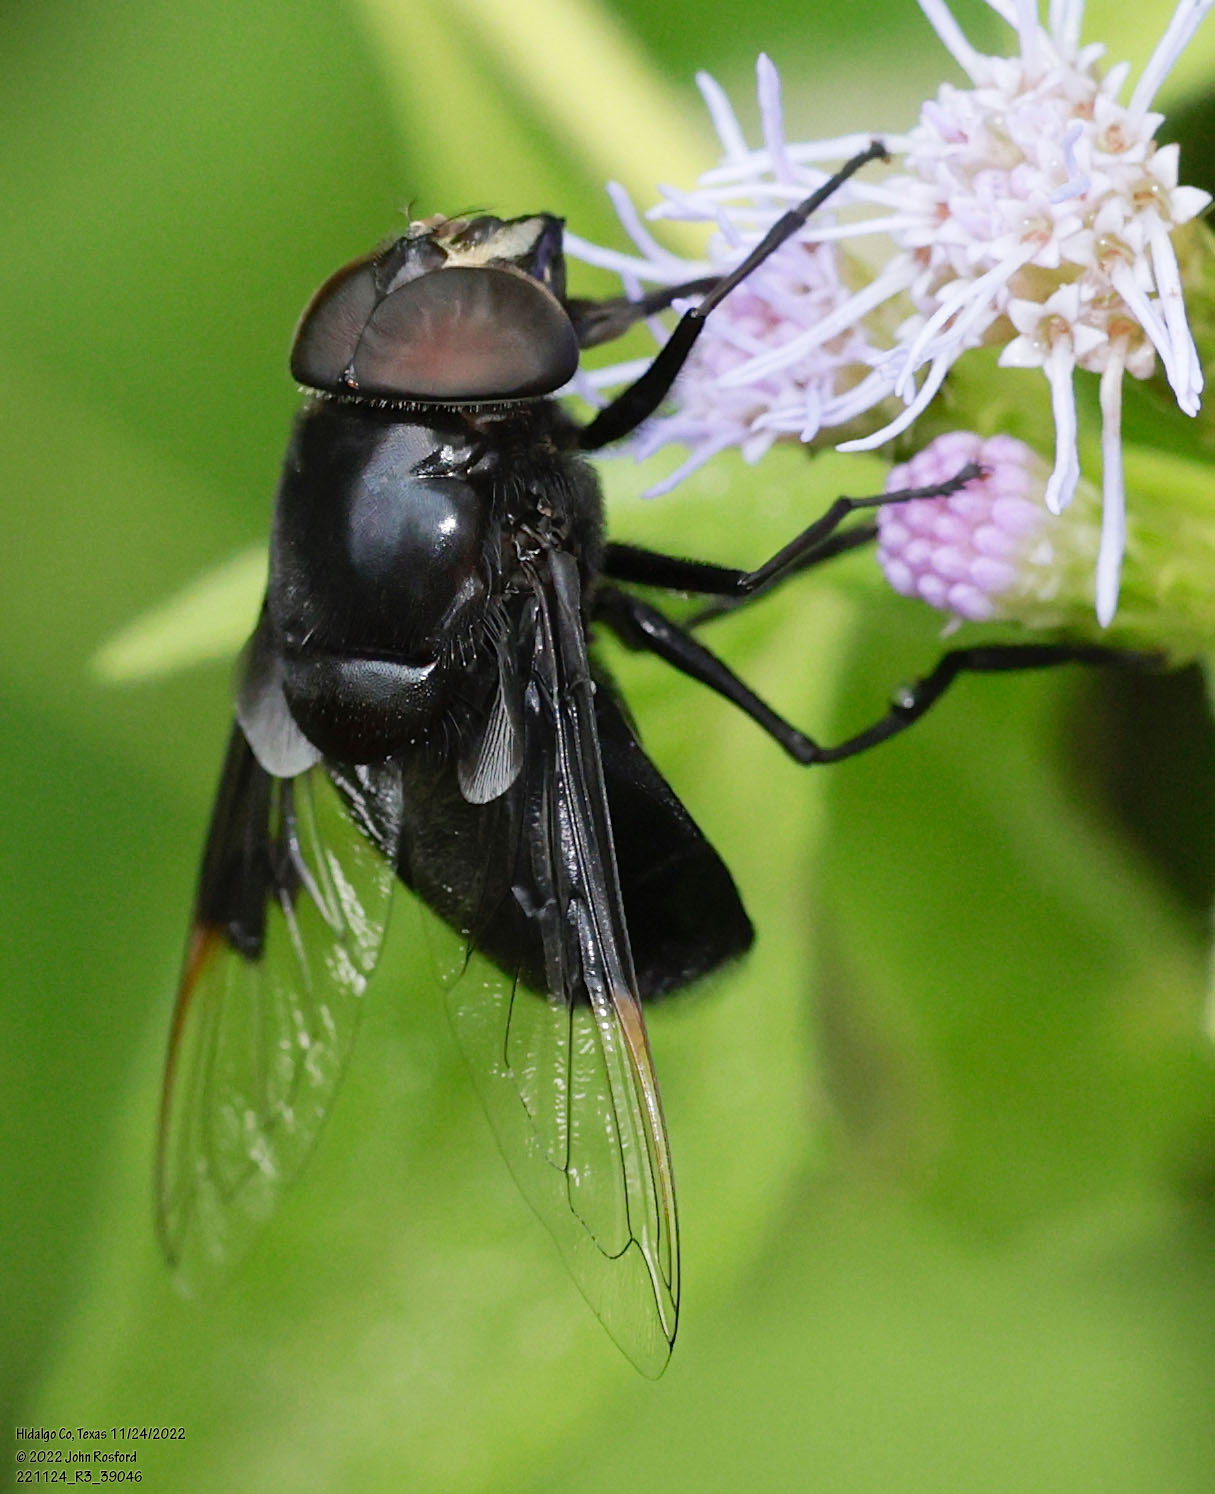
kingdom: Animalia
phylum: Arthropoda
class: Insecta
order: Diptera
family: Syrphidae
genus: Copestylum
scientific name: Copestylum
